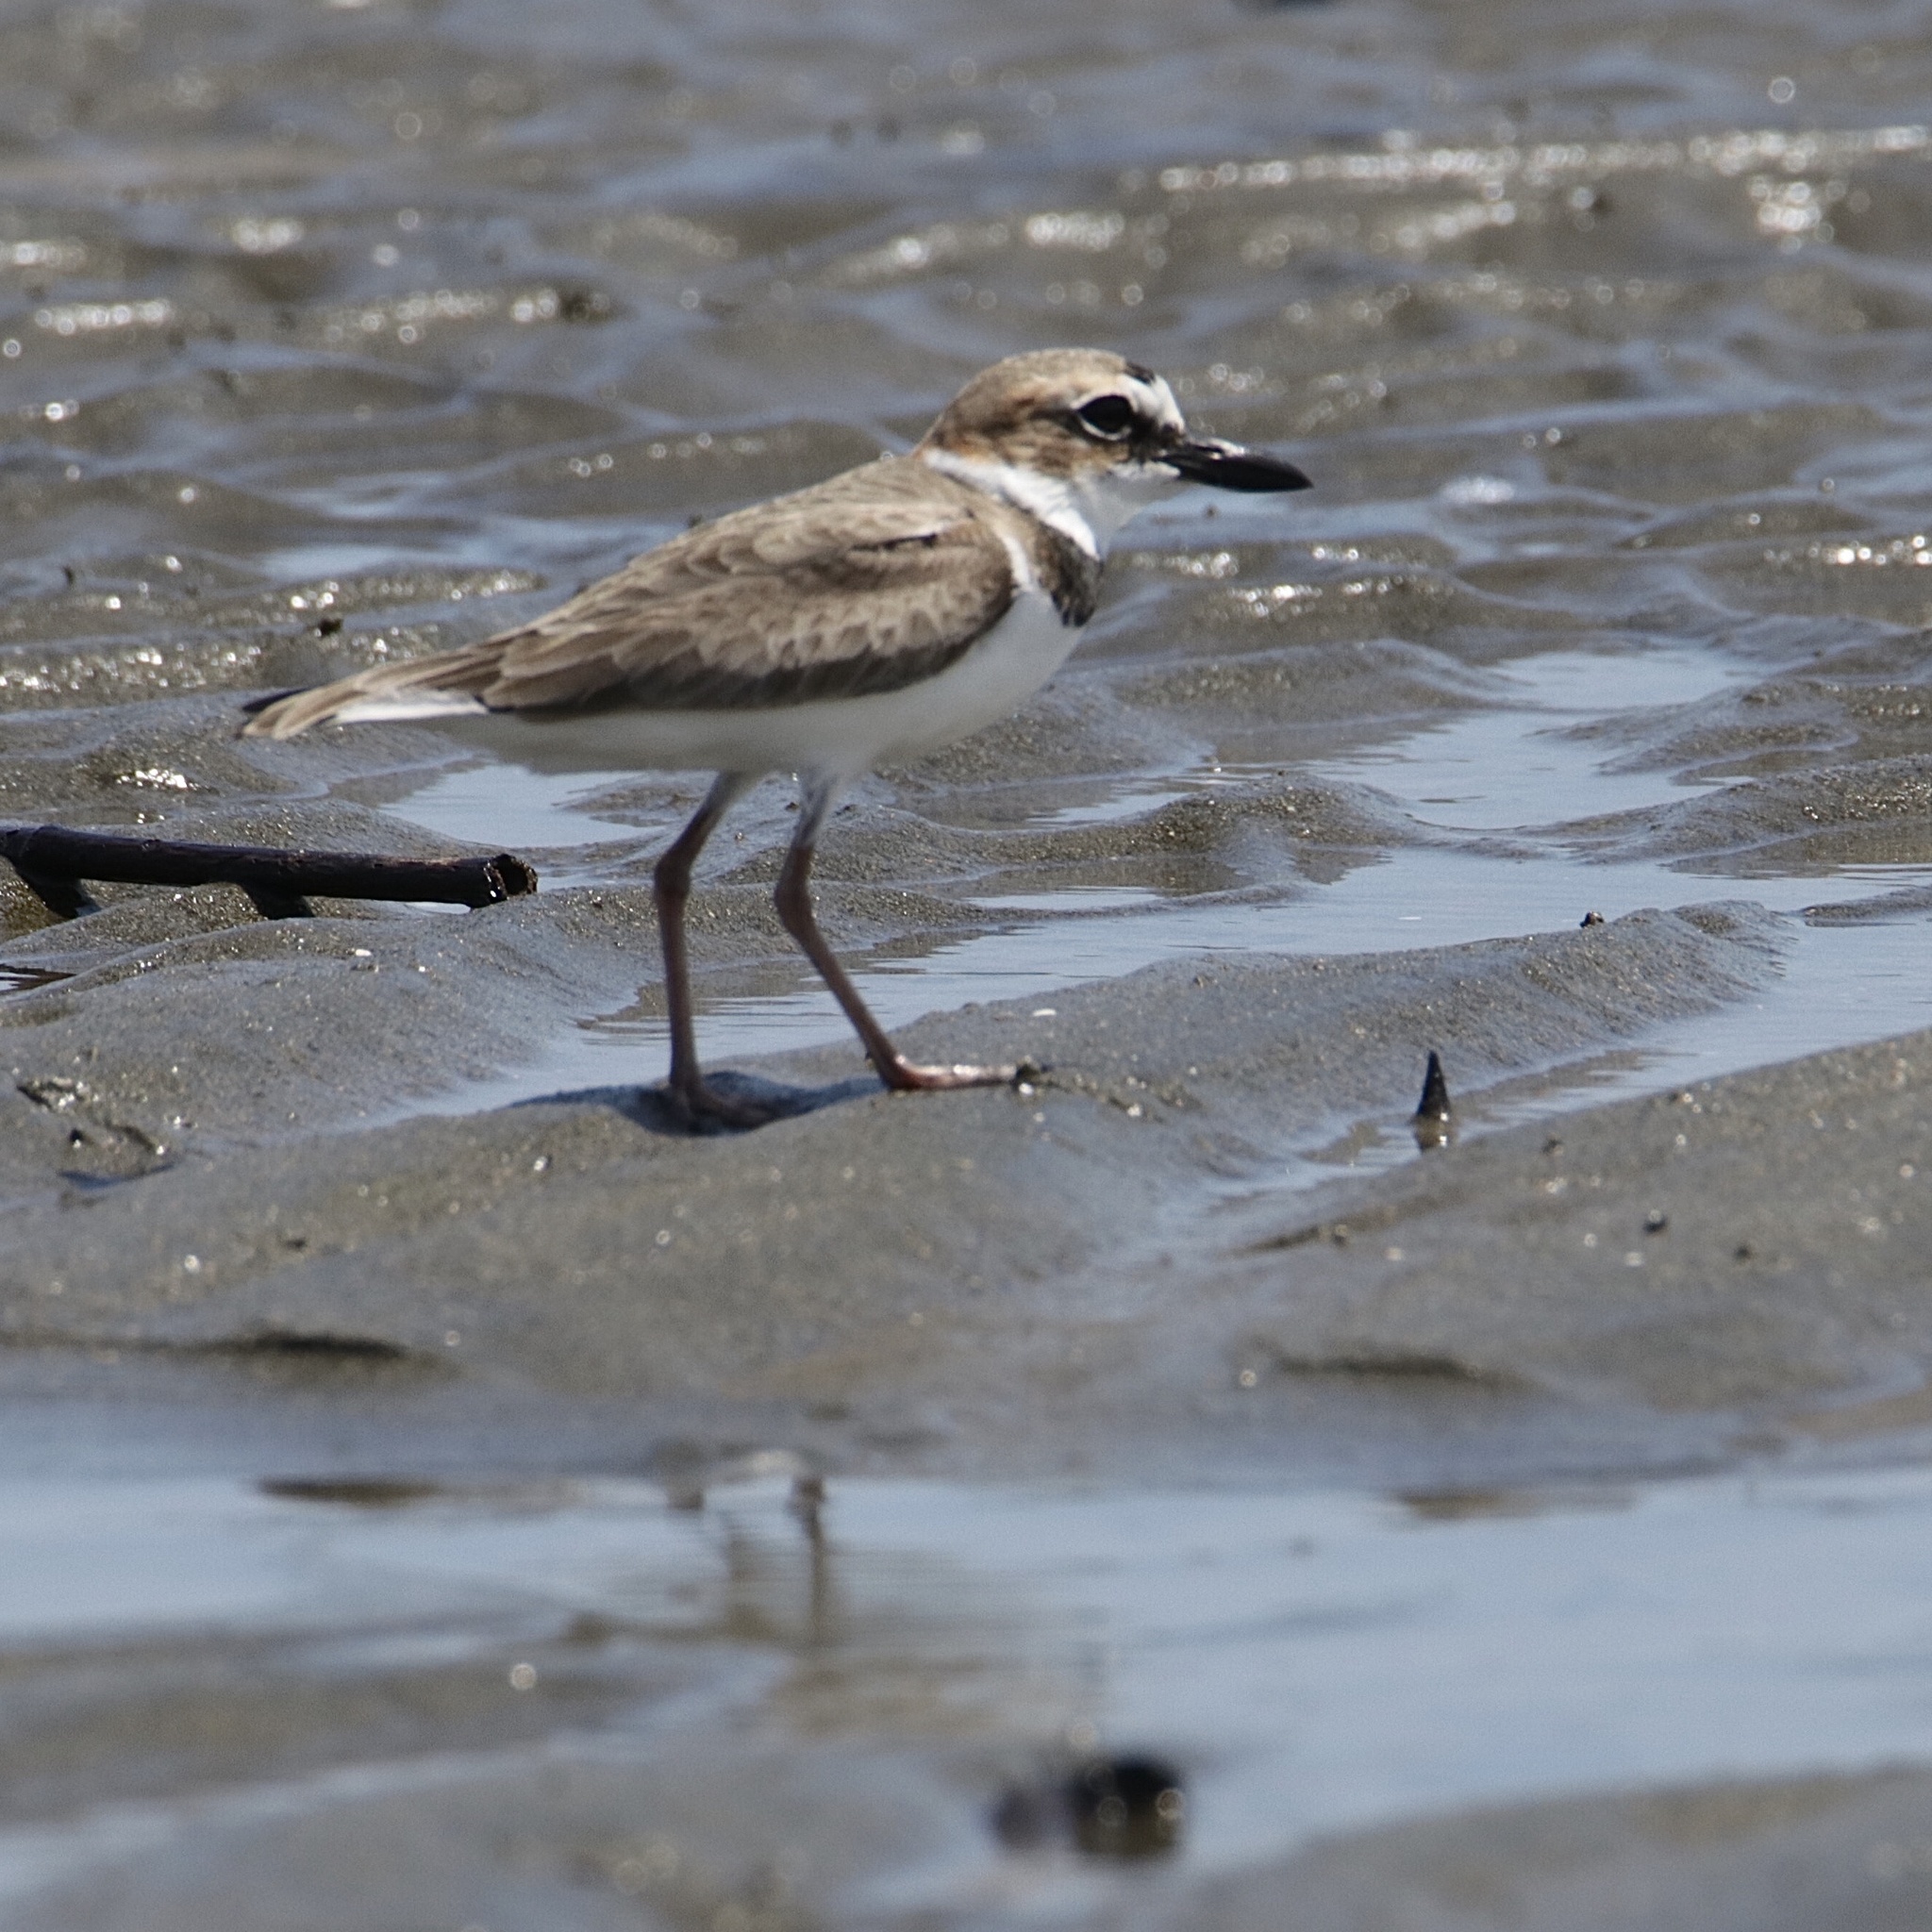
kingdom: Animalia
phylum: Chordata
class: Aves
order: Charadriiformes
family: Charadriidae
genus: Anarhynchus
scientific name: Anarhynchus
